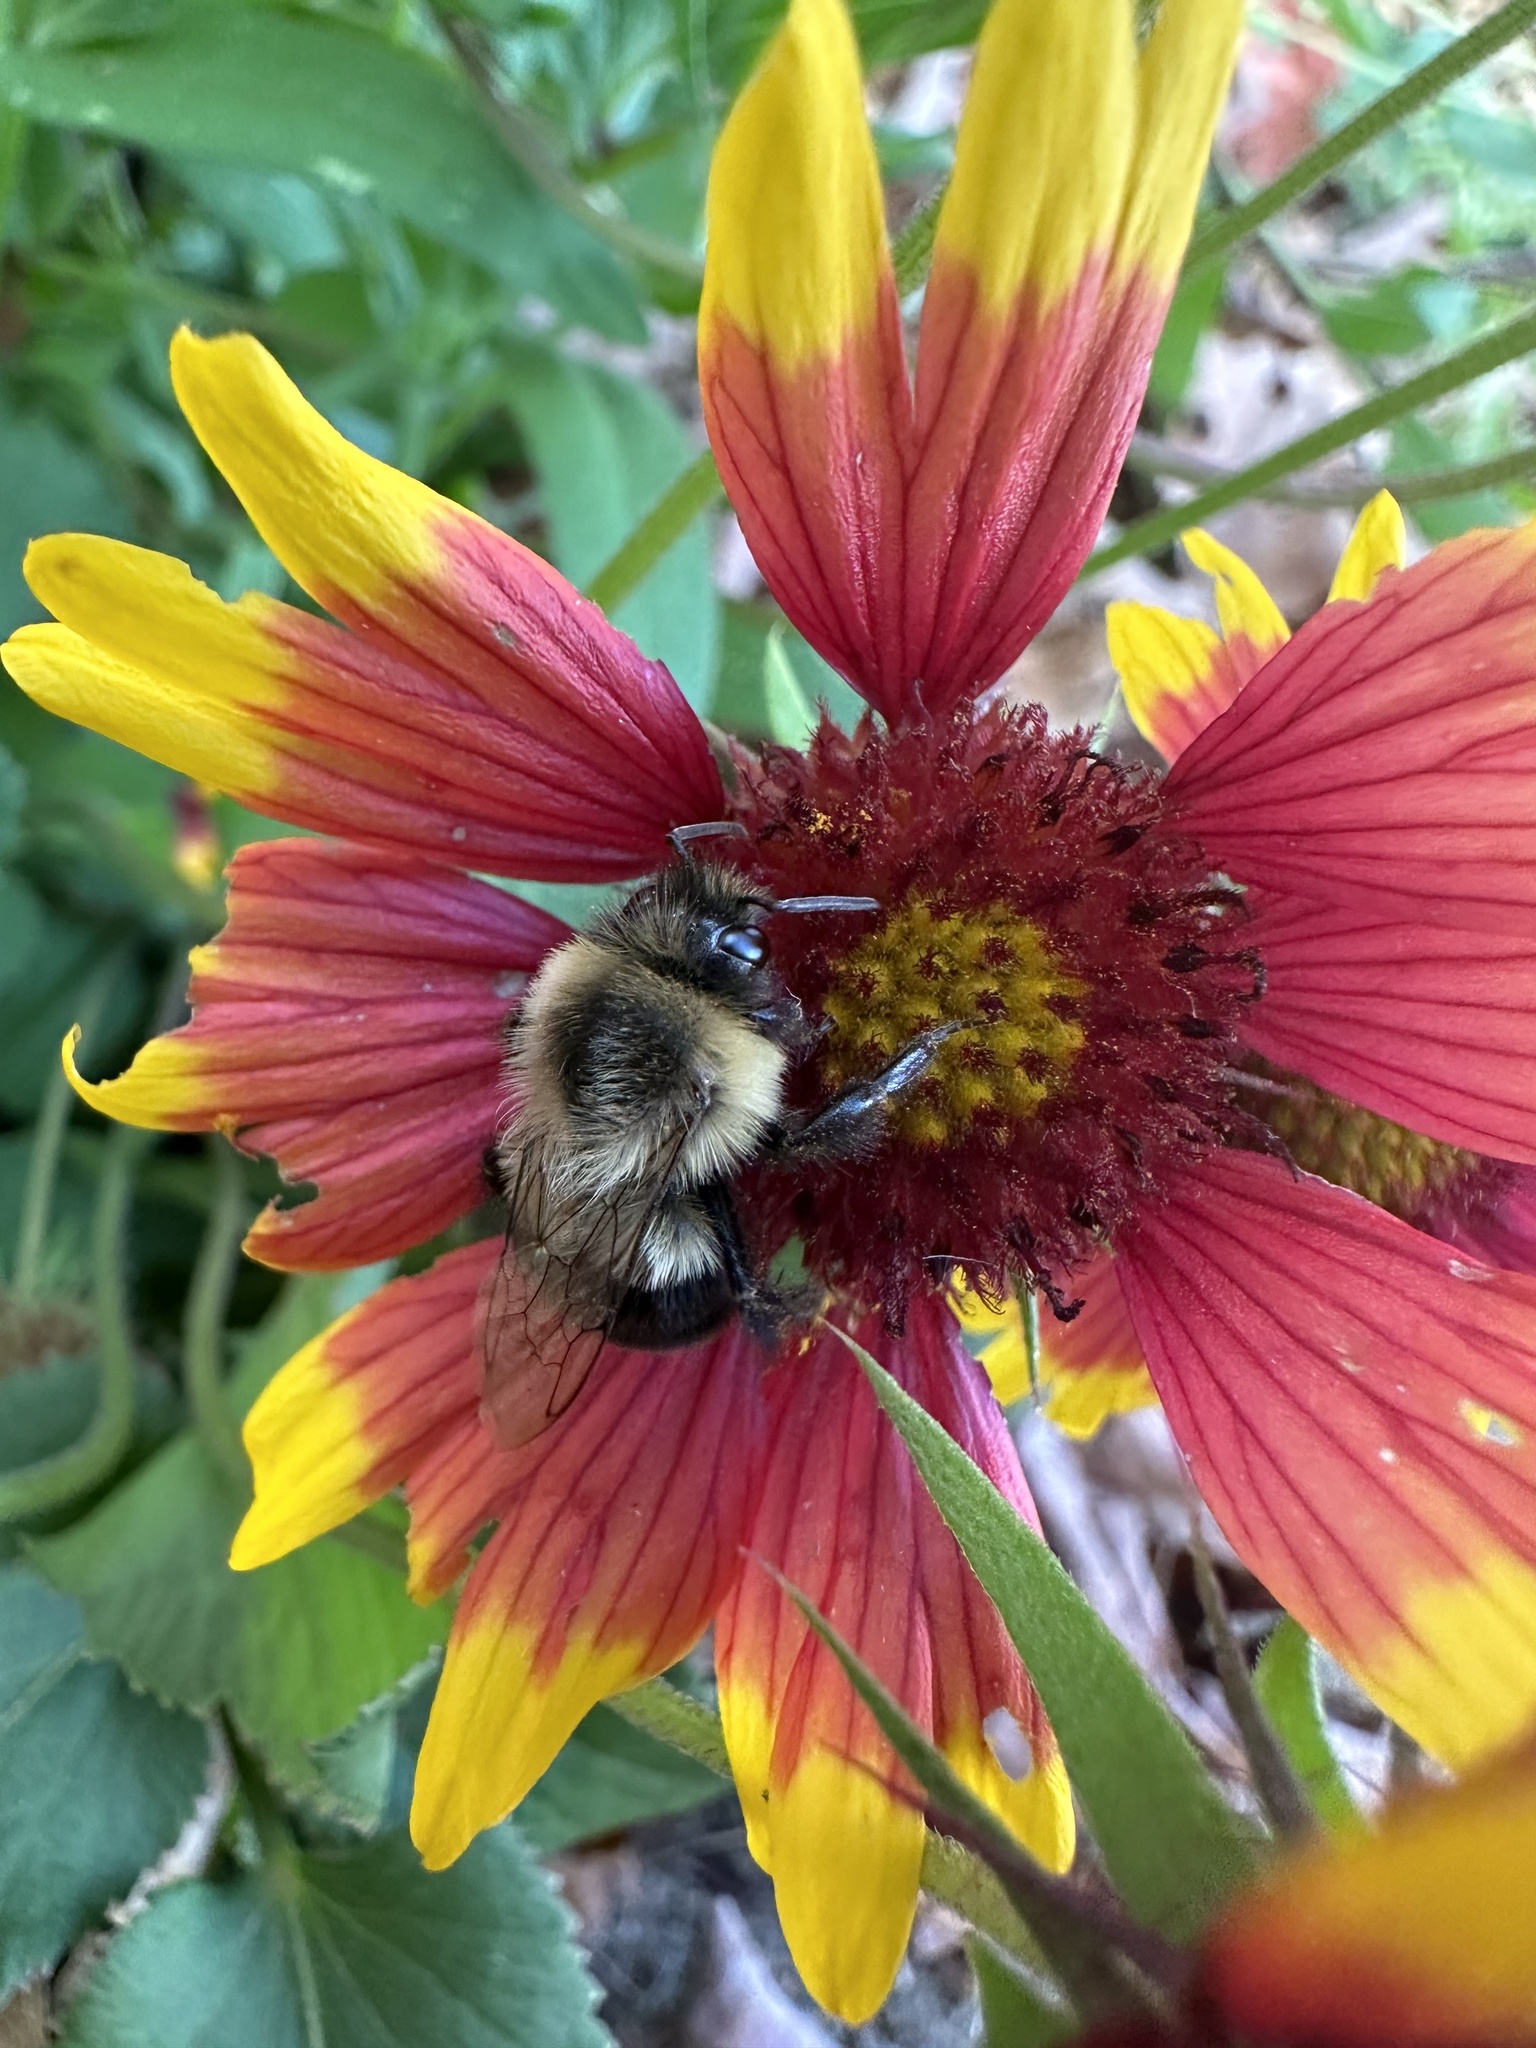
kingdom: Animalia
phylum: Arthropoda
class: Insecta
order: Hymenoptera
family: Apidae
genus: Bombus
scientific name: Bombus impatiens
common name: Common eastern bumble bee
